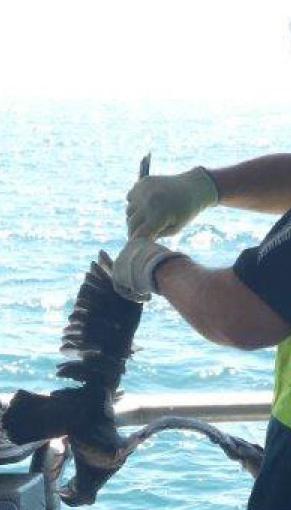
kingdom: Animalia
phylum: Chordata
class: Aves
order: Procellariiformes
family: Procellariidae
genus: Puffinus
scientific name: Puffinus carneipes
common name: Flesh-footed shearwater
